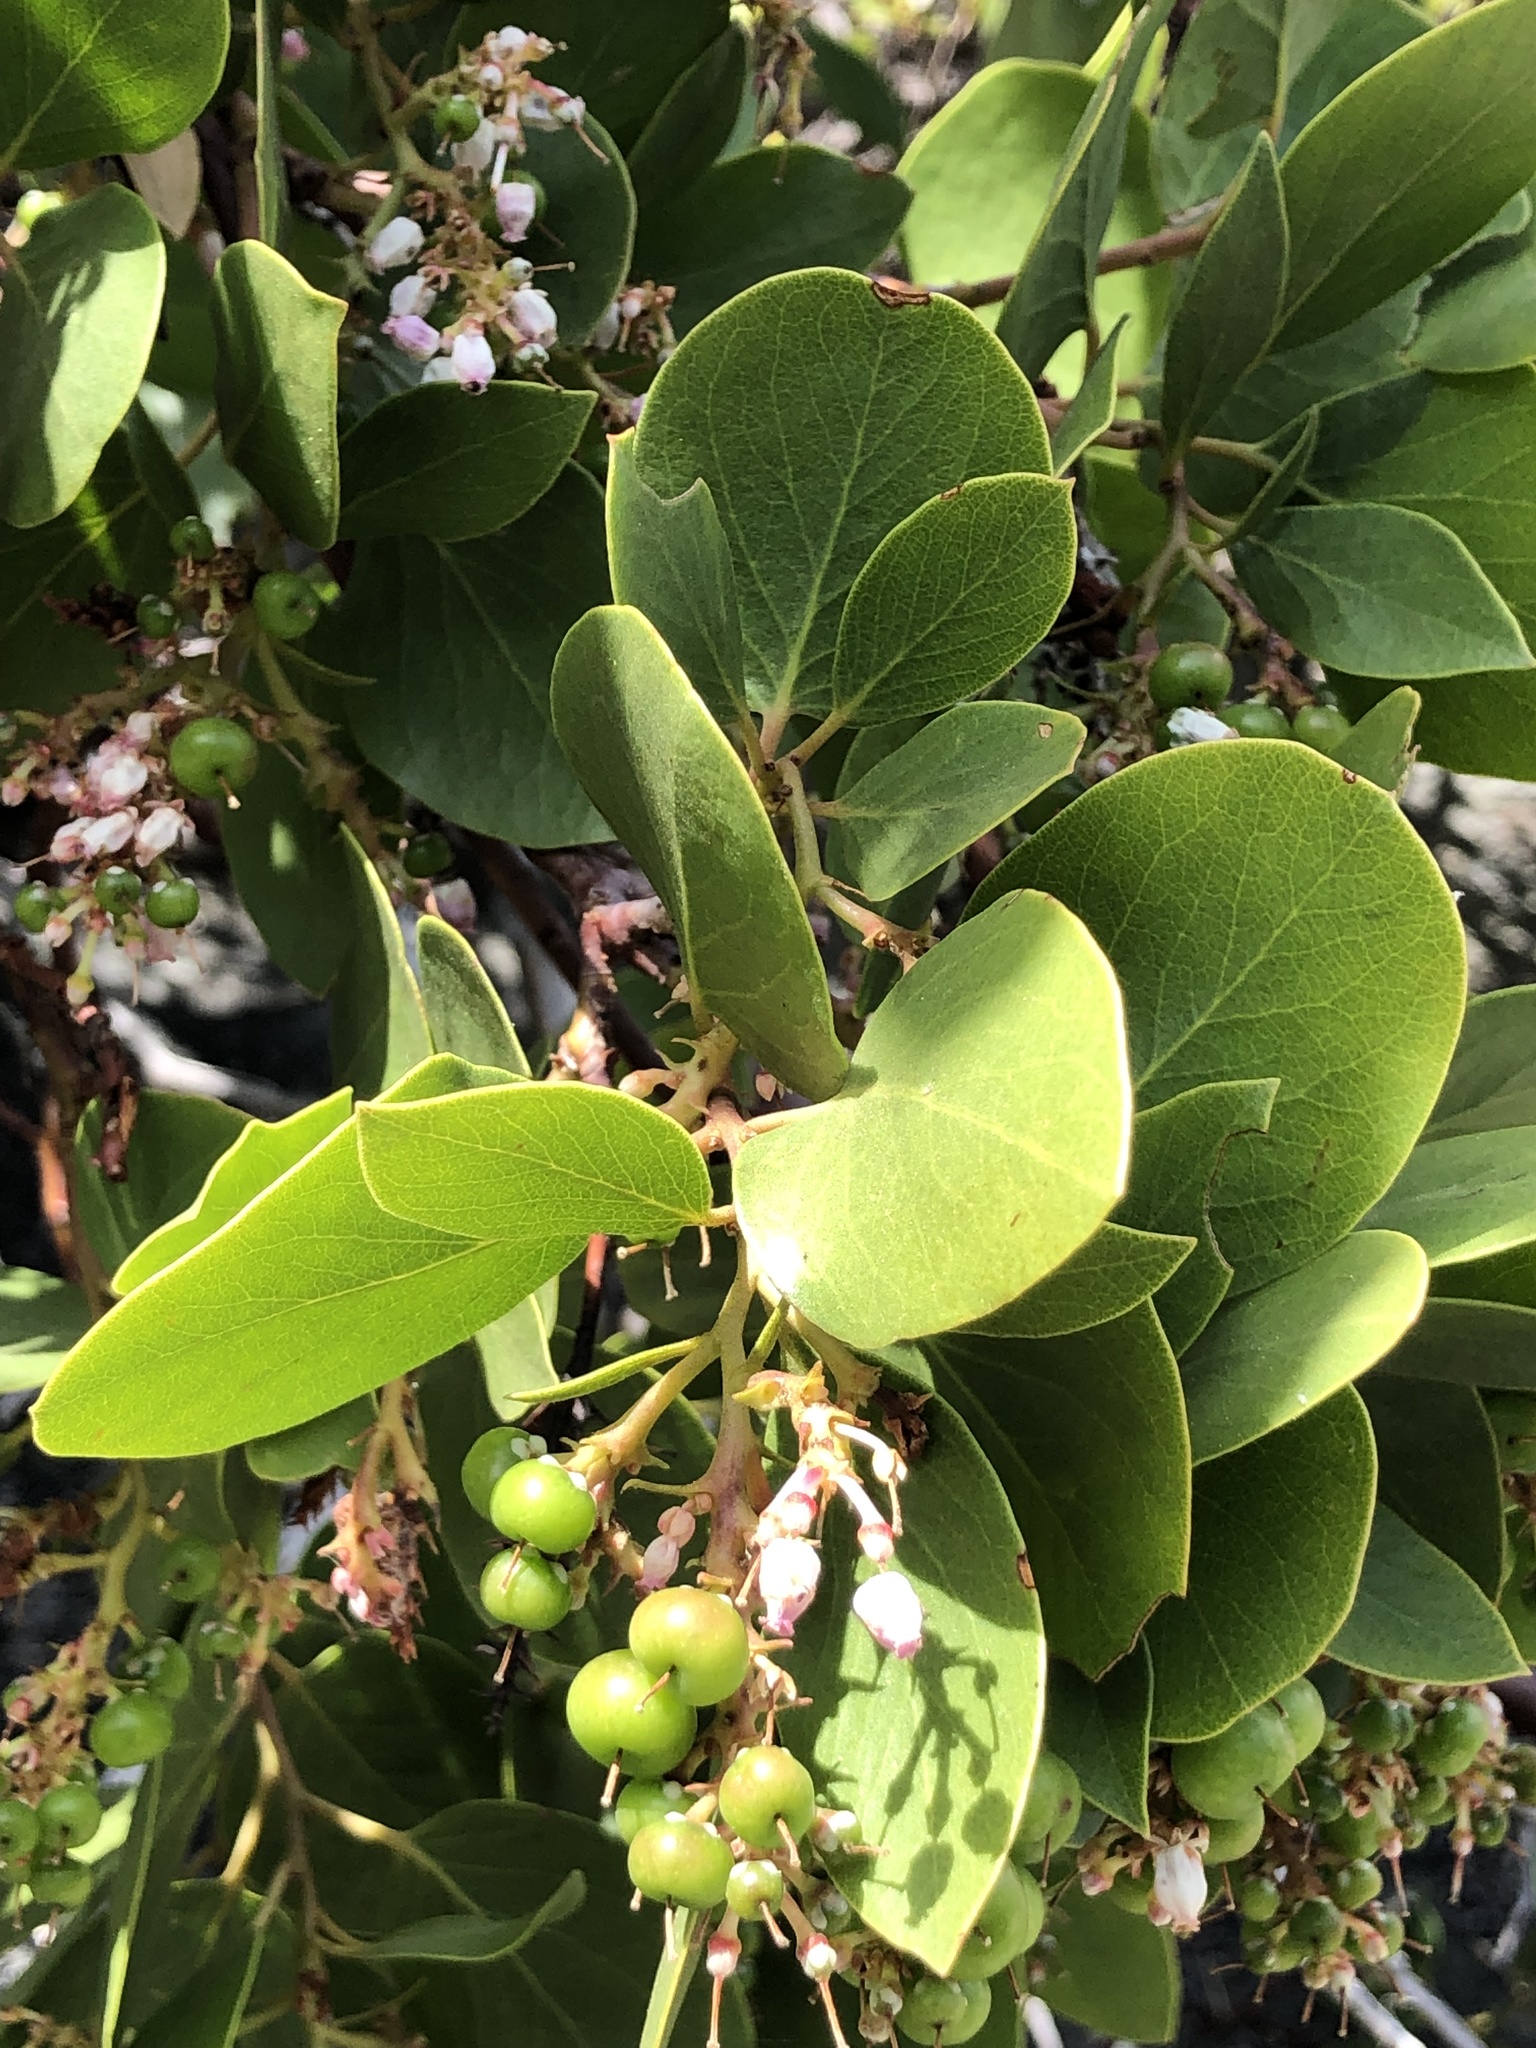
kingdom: Plantae
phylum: Tracheophyta
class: Magnoliopsida
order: Ericales
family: Ericaceae
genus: Arctostaphylos
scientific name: Arctostaphylos patula
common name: Green-leaf manzanita
